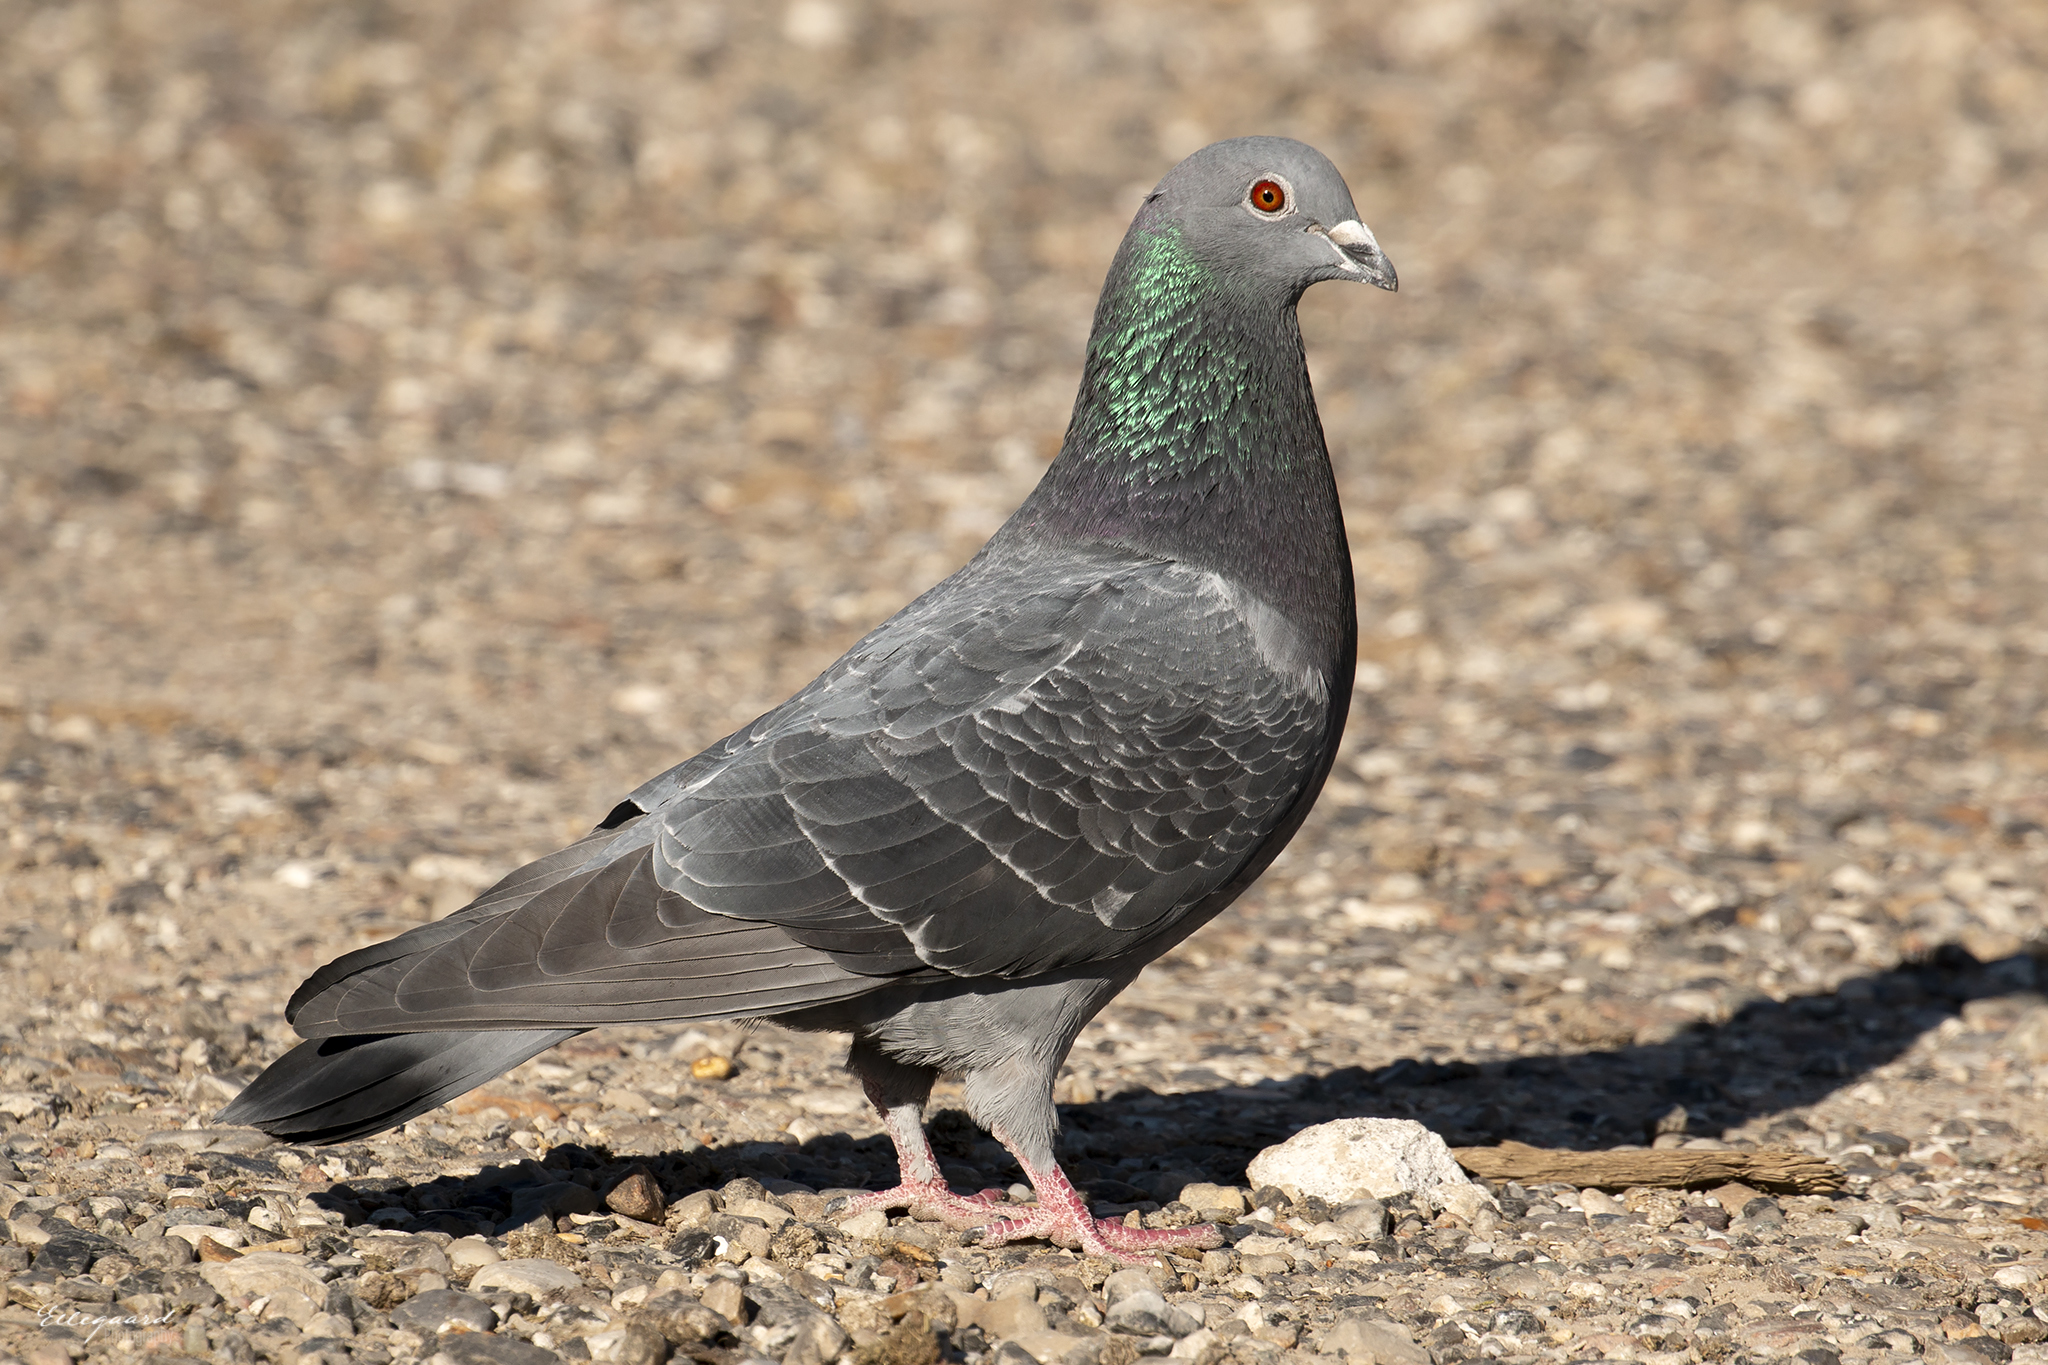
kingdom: Animalia
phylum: Chordata
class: Aves
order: Columbiformes
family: Columbidae
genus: Columba
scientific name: Columba livia
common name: Rock pigeon
